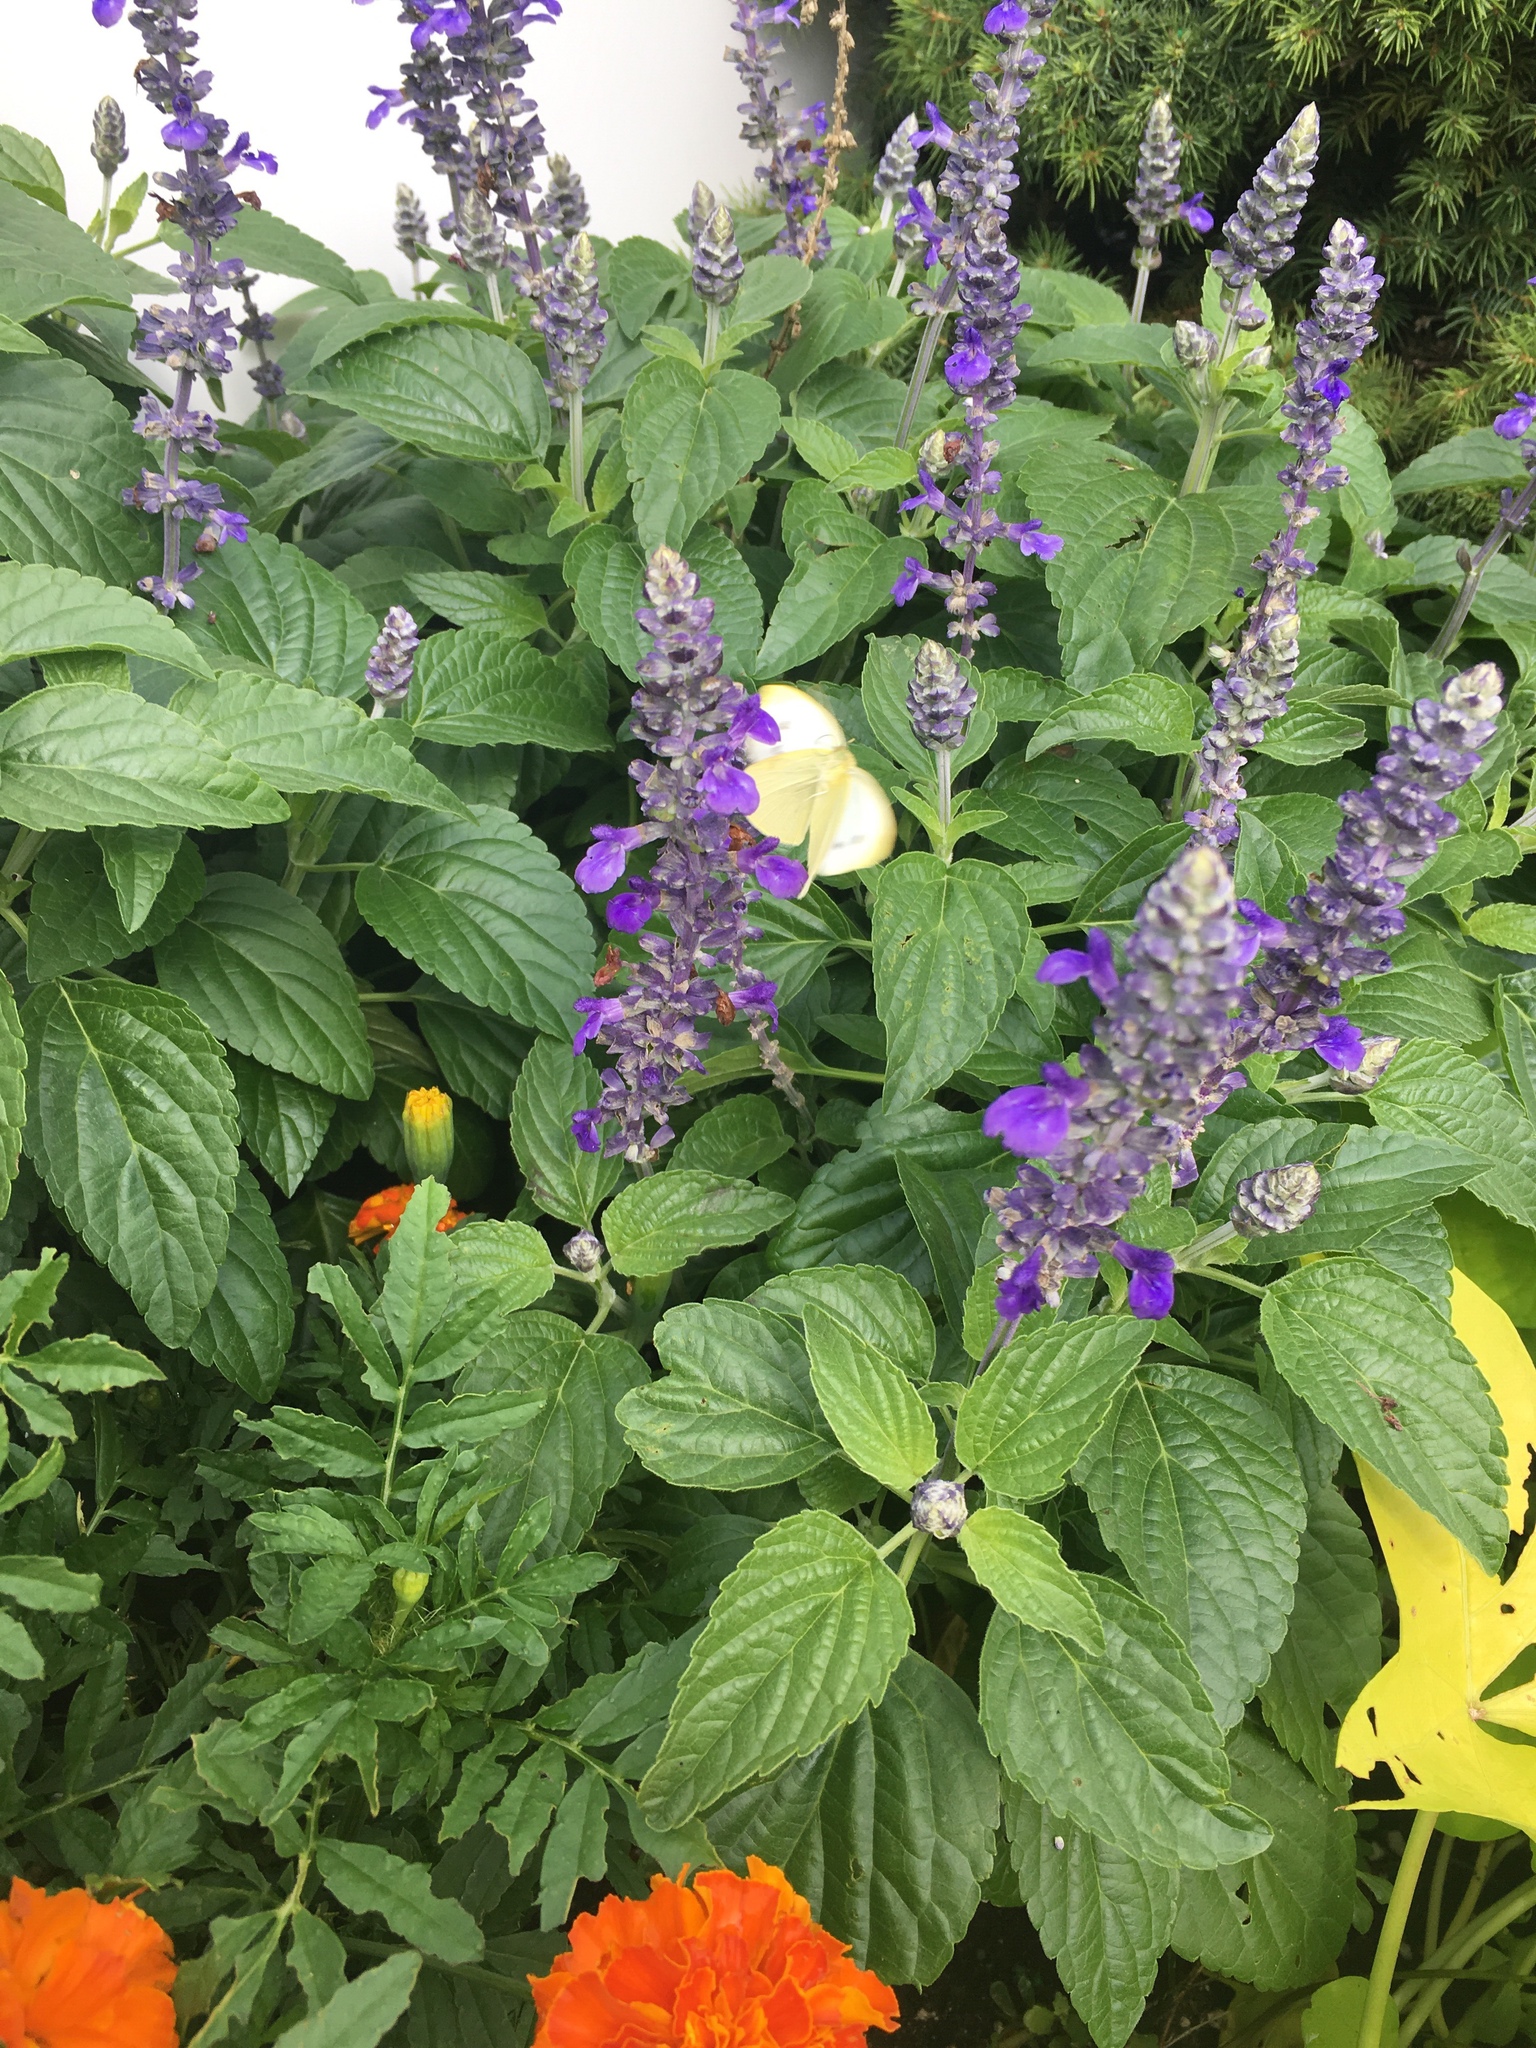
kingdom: Animalia
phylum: Arthropoda
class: Insecta
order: Lepidoptera
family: Pieridae
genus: Pieris
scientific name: Pieris rapae
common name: Small white
